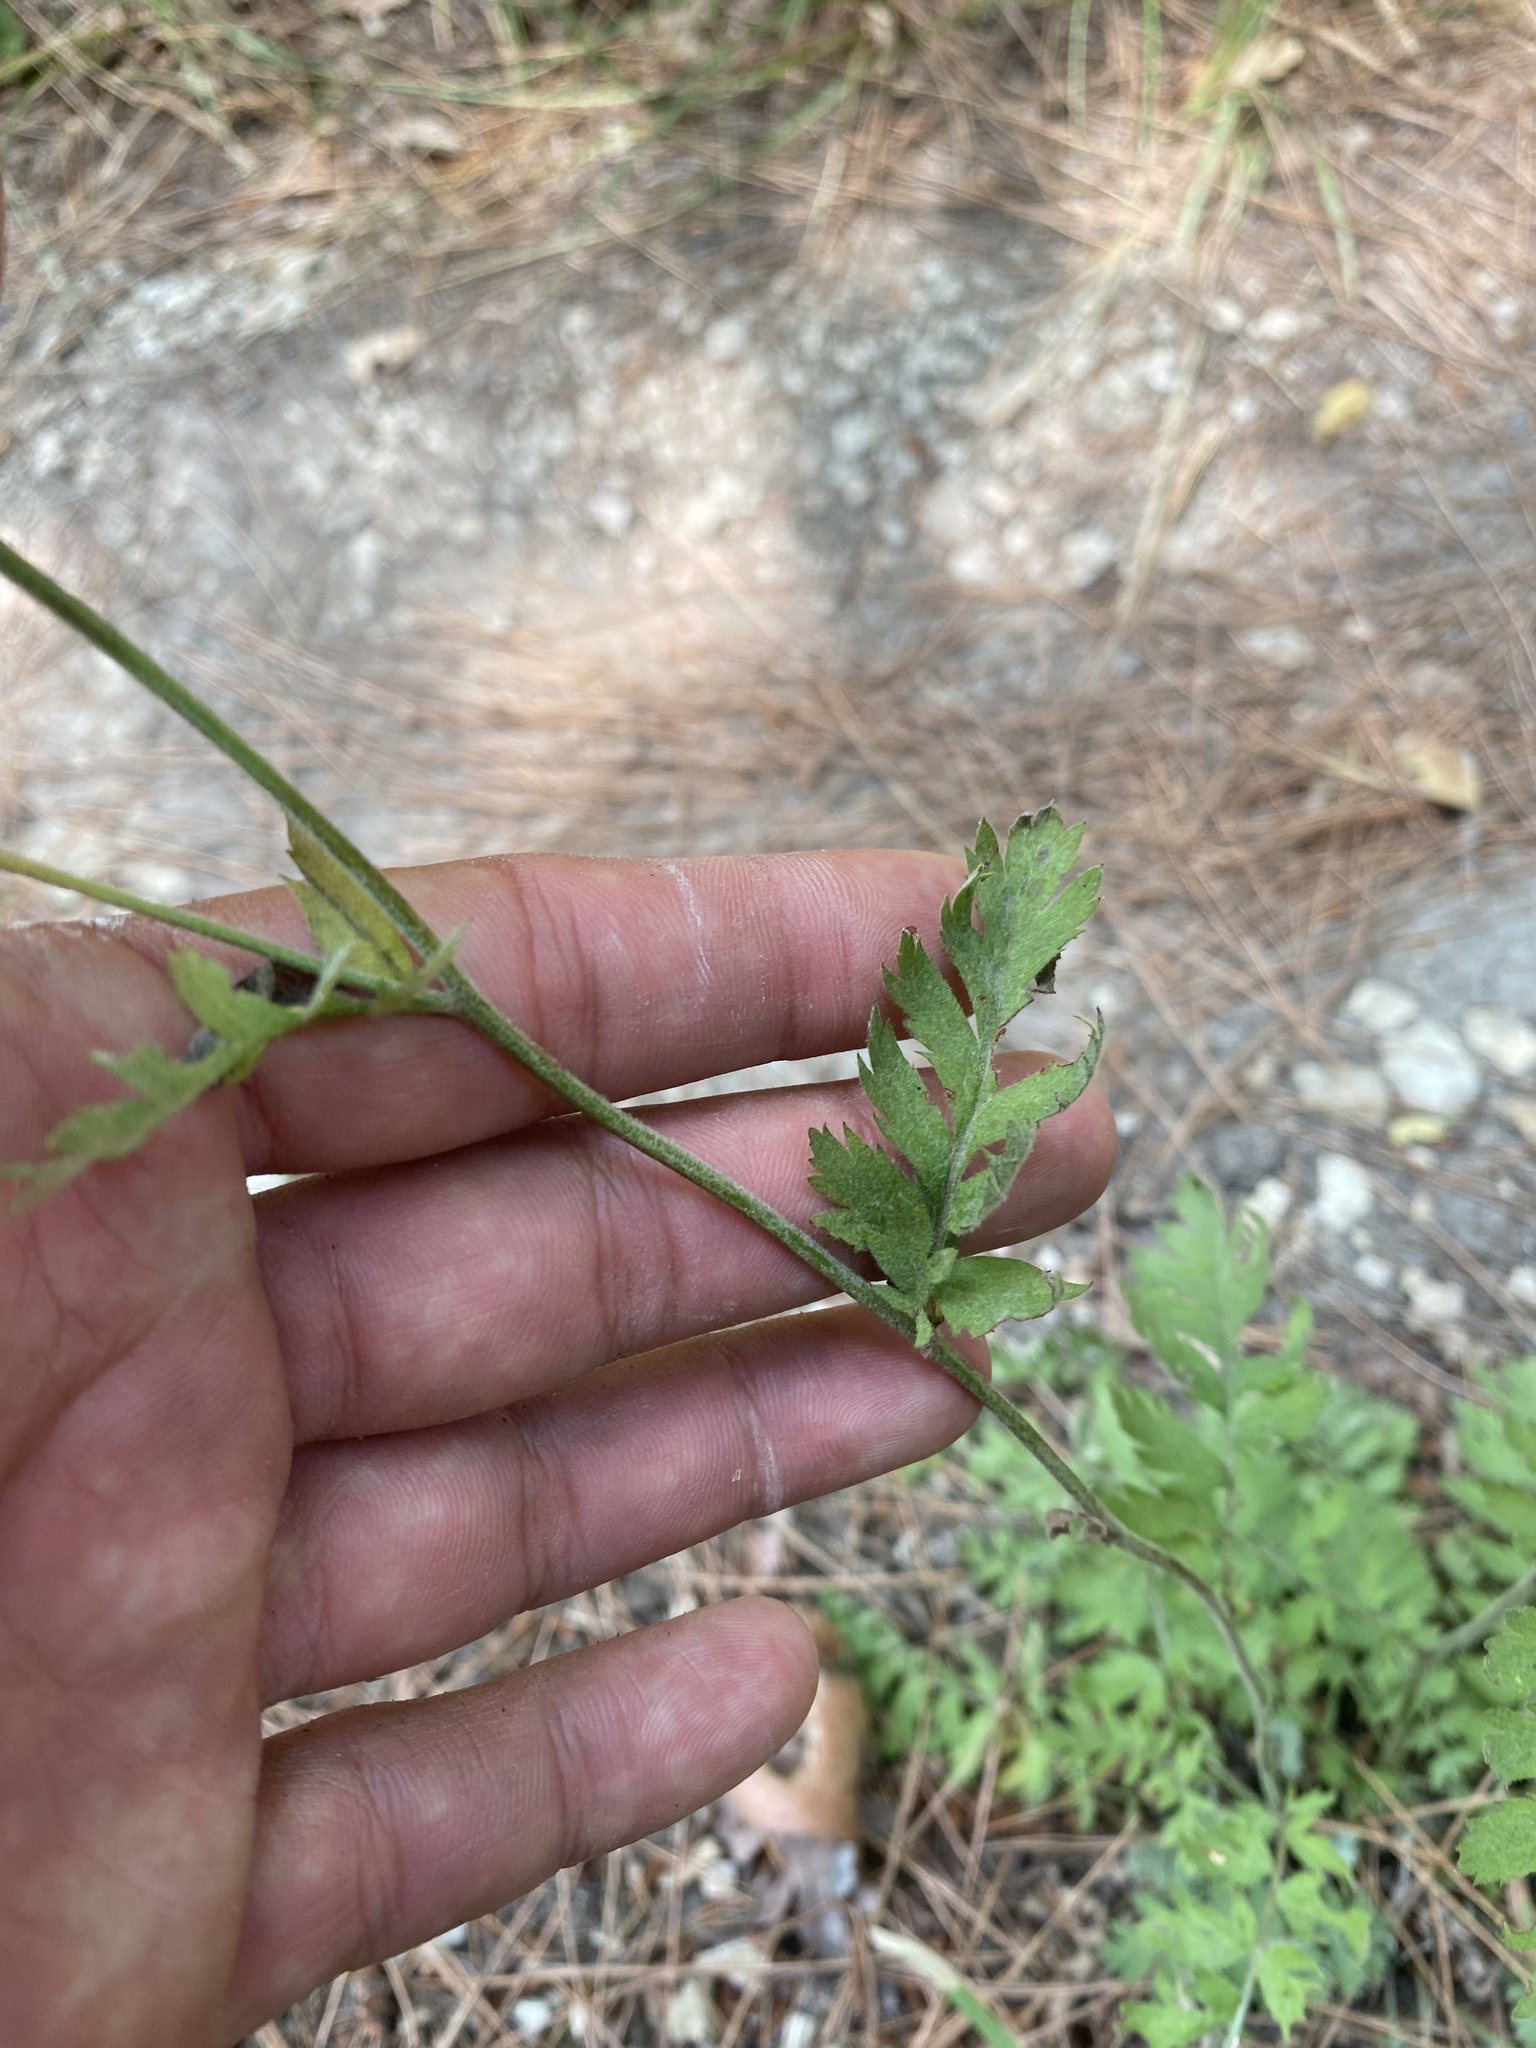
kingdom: Plantae
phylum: Tracheophyta
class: Magnoliopsida
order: Asterales
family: Asteraceae
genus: Tanacetum
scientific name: Tanacetum poteriifolium
